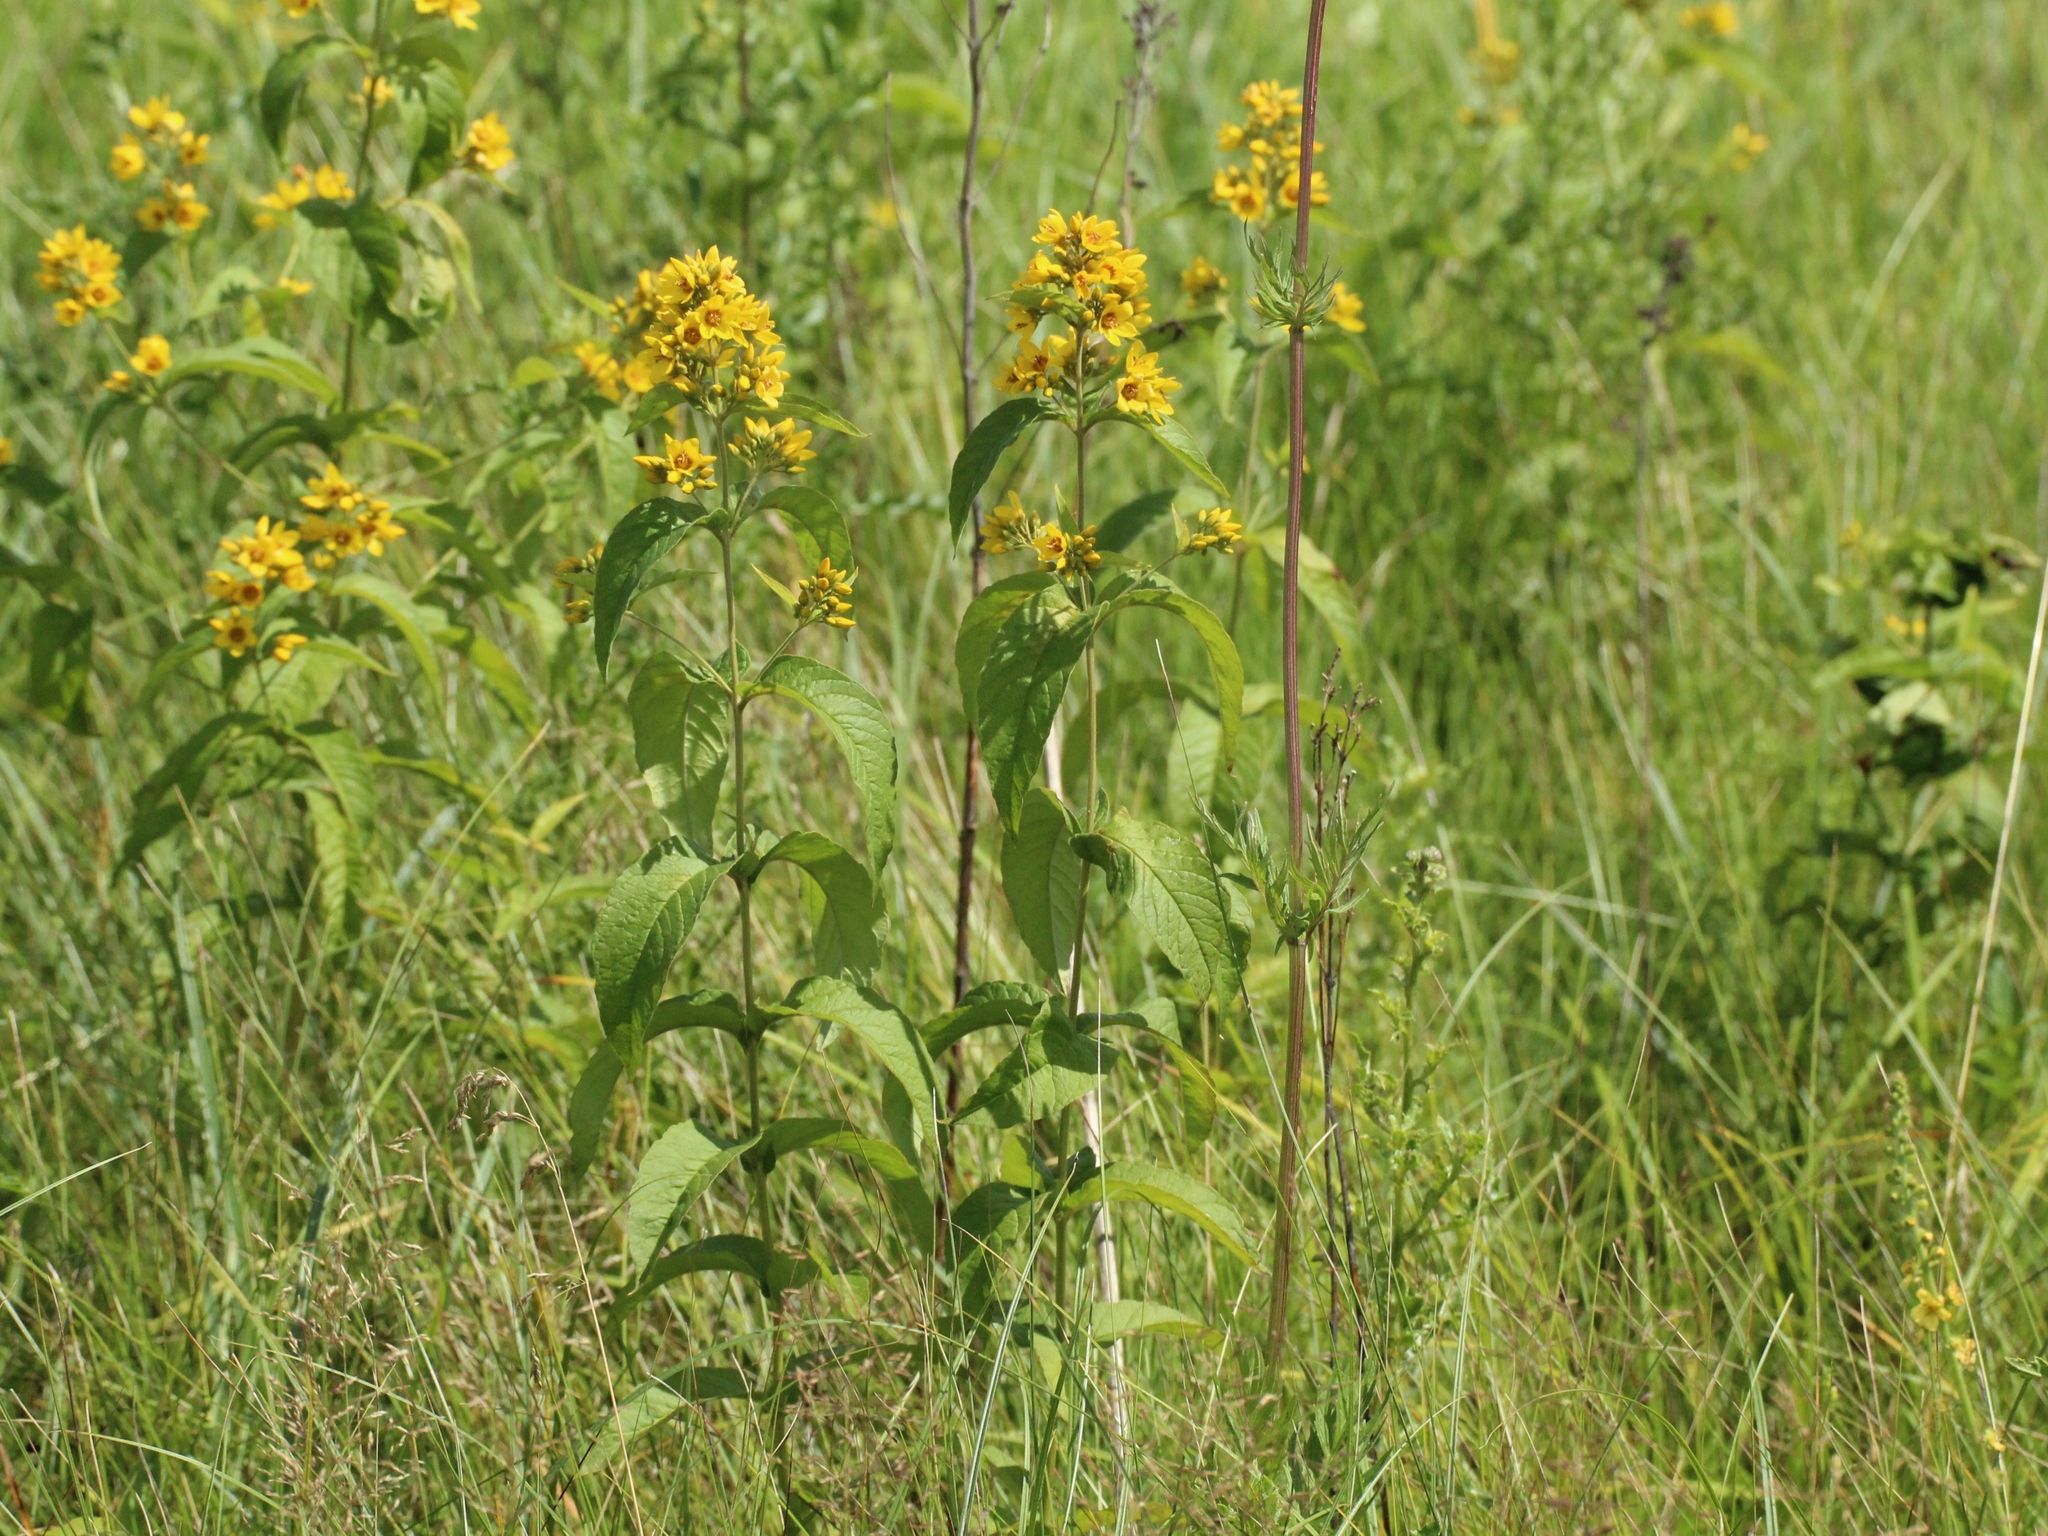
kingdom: Plantae
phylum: Tracheophyta
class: Magnoliopsida
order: Ericales
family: Primulaceae
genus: Lysimachia
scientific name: Lysimachia vulgaris
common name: Yellow loosestrife
